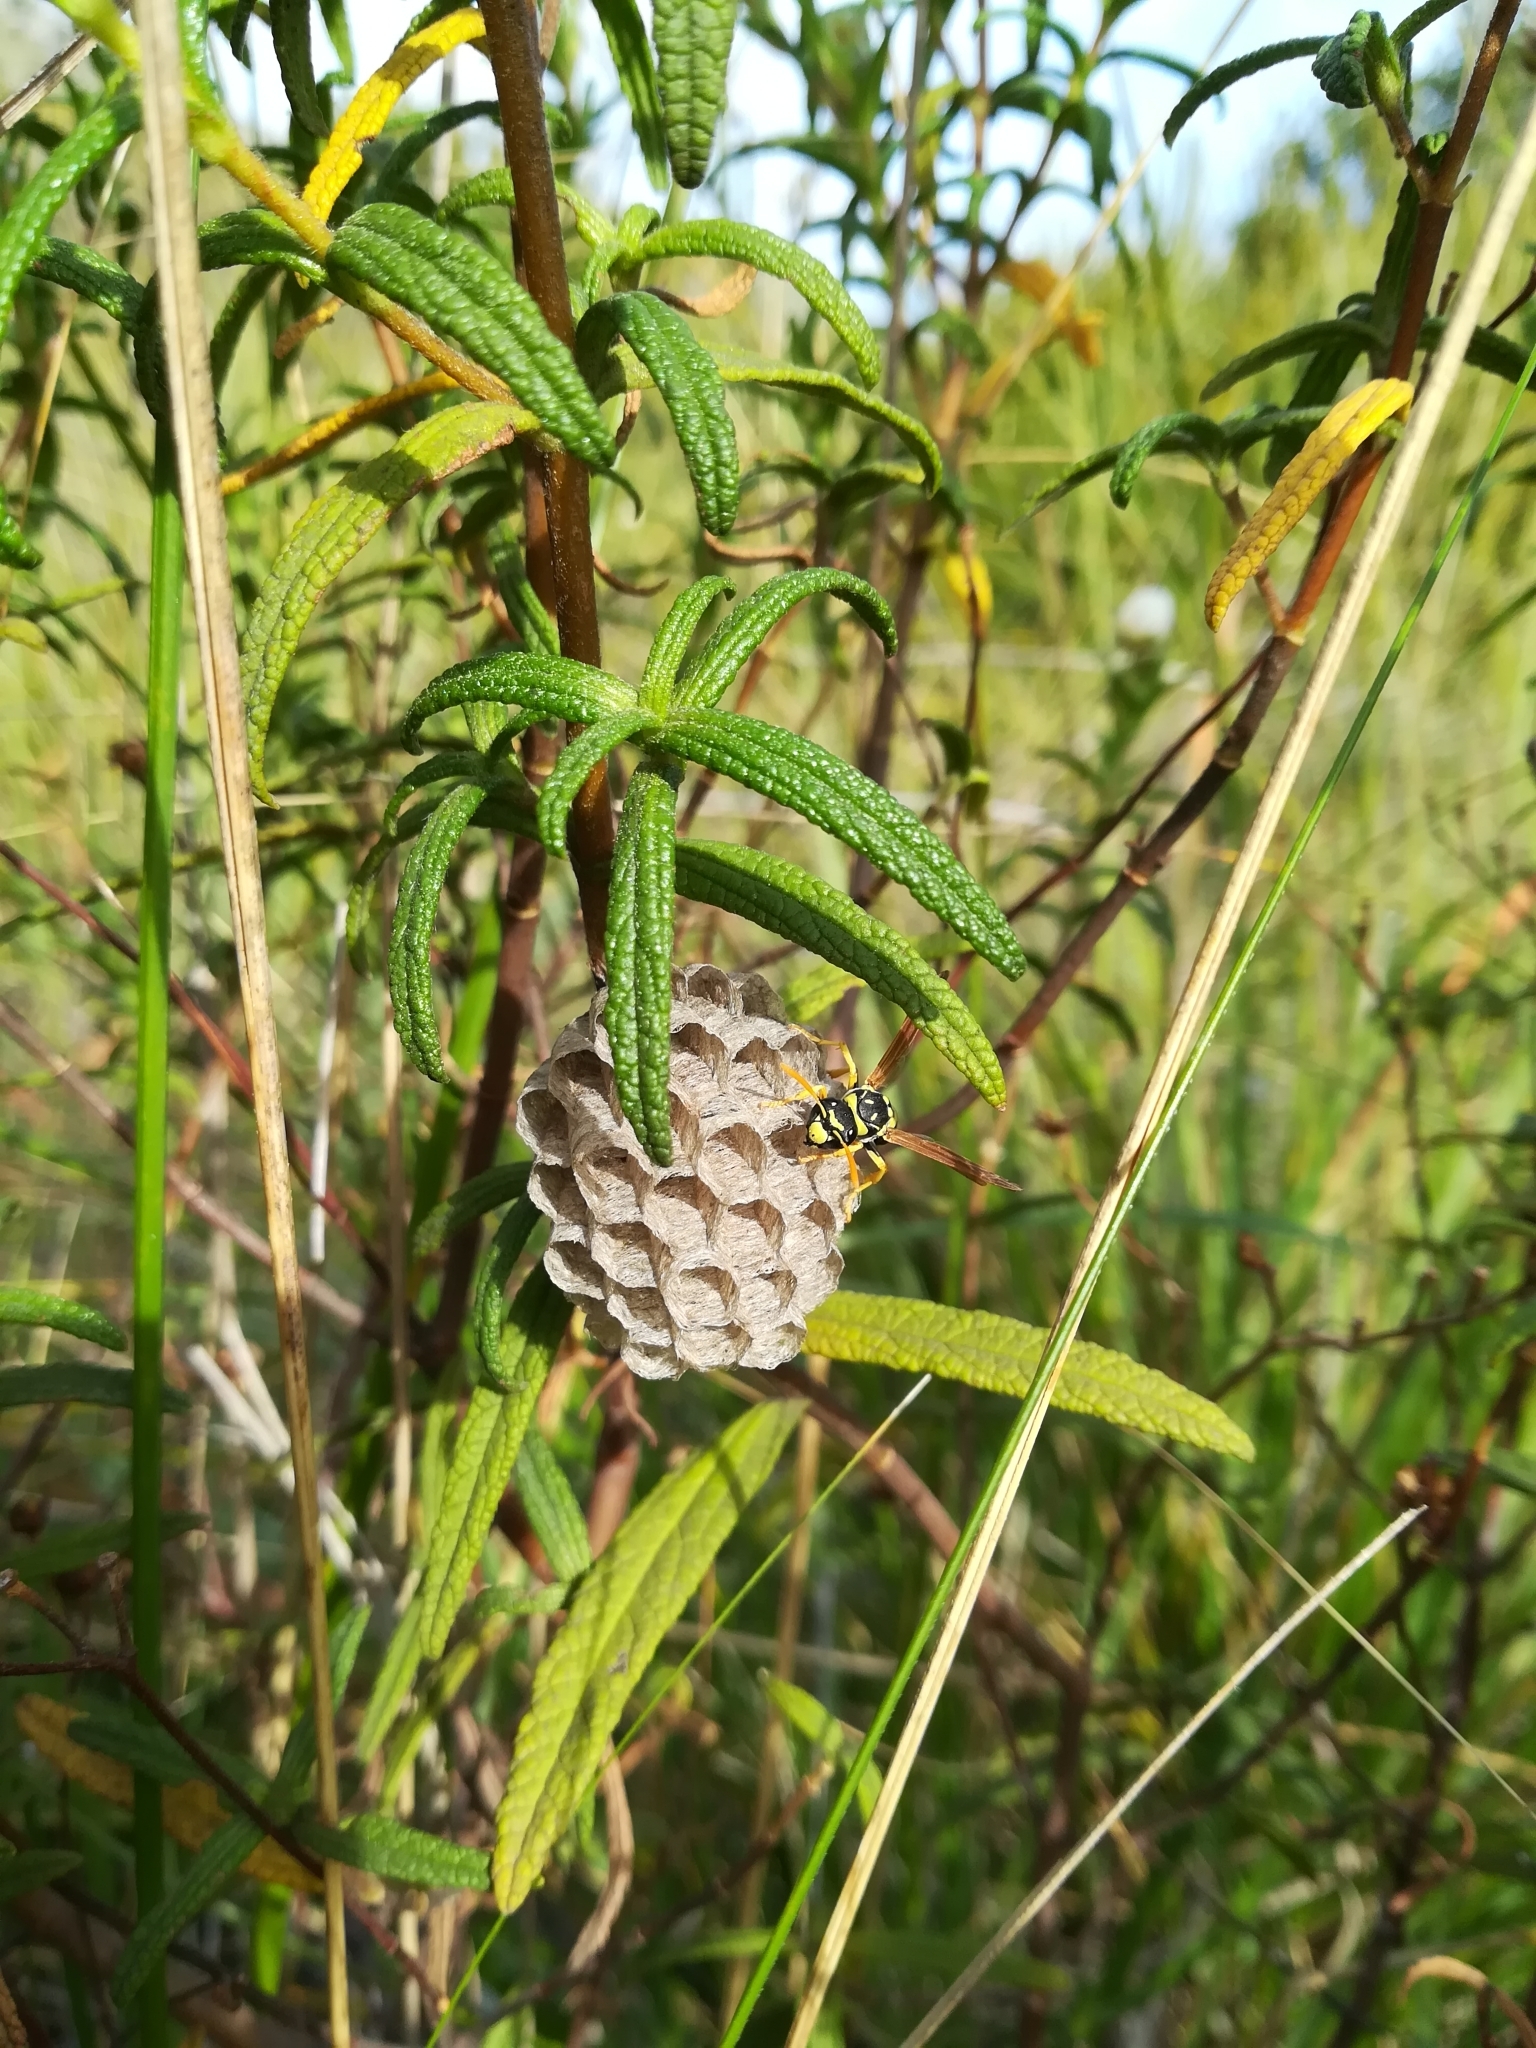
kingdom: Animalia
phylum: Arthropoda
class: Insecta
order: Hymenoptera
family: Eumenidae
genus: Polistes
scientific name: Polistes gallicus
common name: Paper wasp
